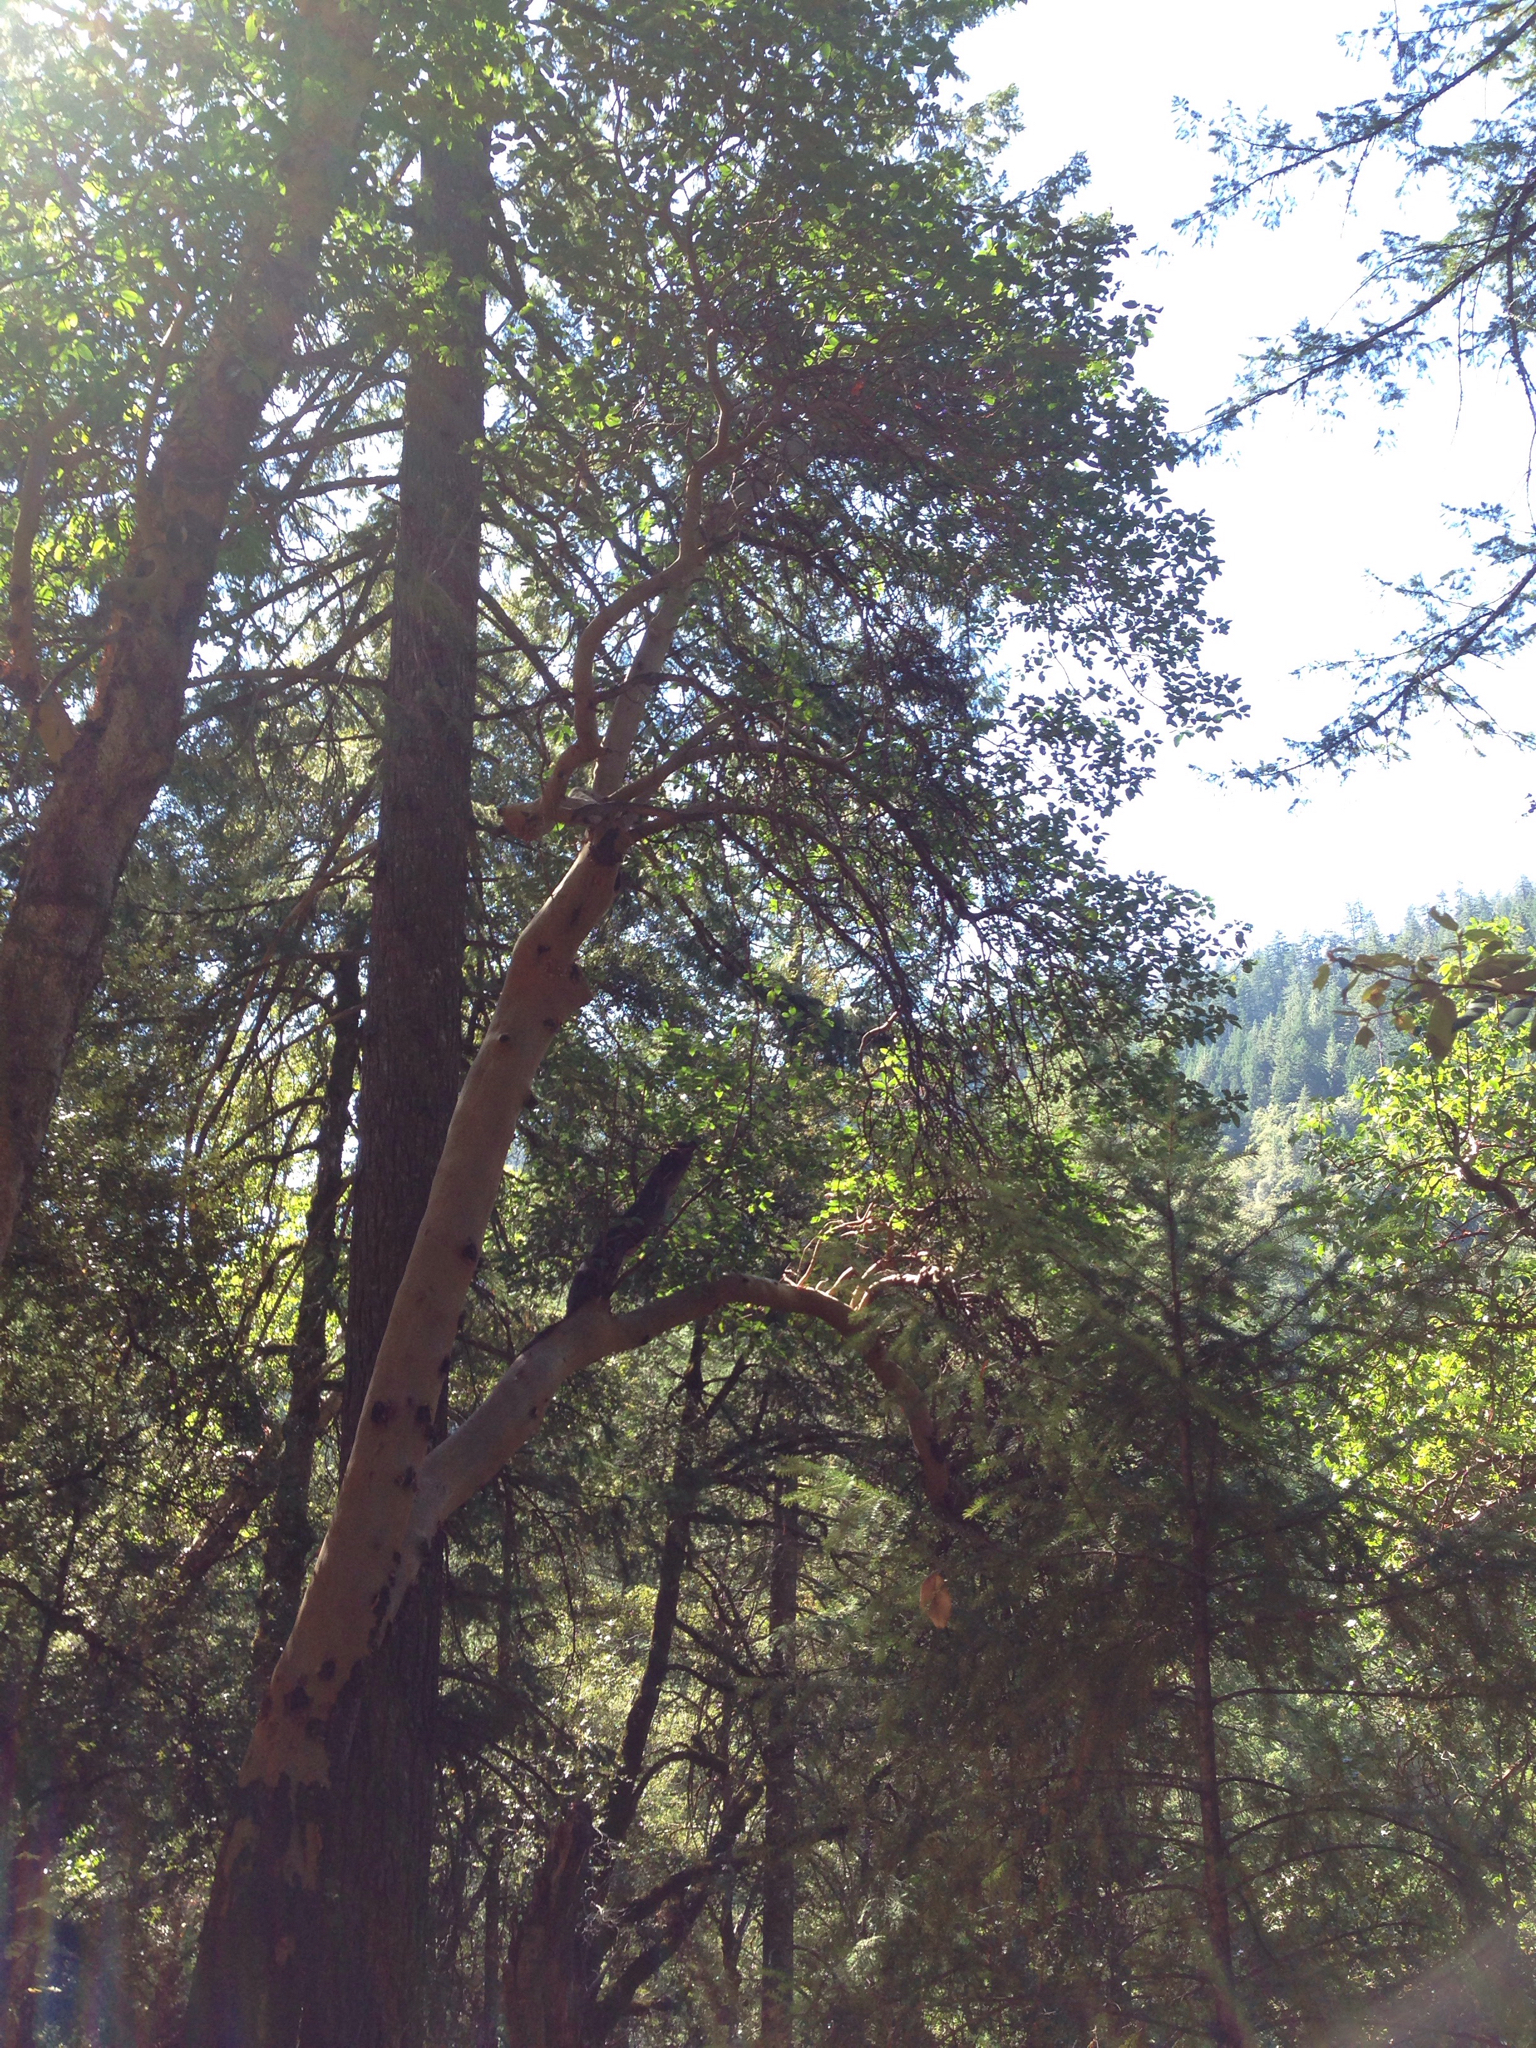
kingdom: Plantae
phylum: Tracheophyta
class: Magnoliopsida
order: Ericales
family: Ericaceae
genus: Arbutus
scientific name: Arbutus menziesii
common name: Pacific madrone
